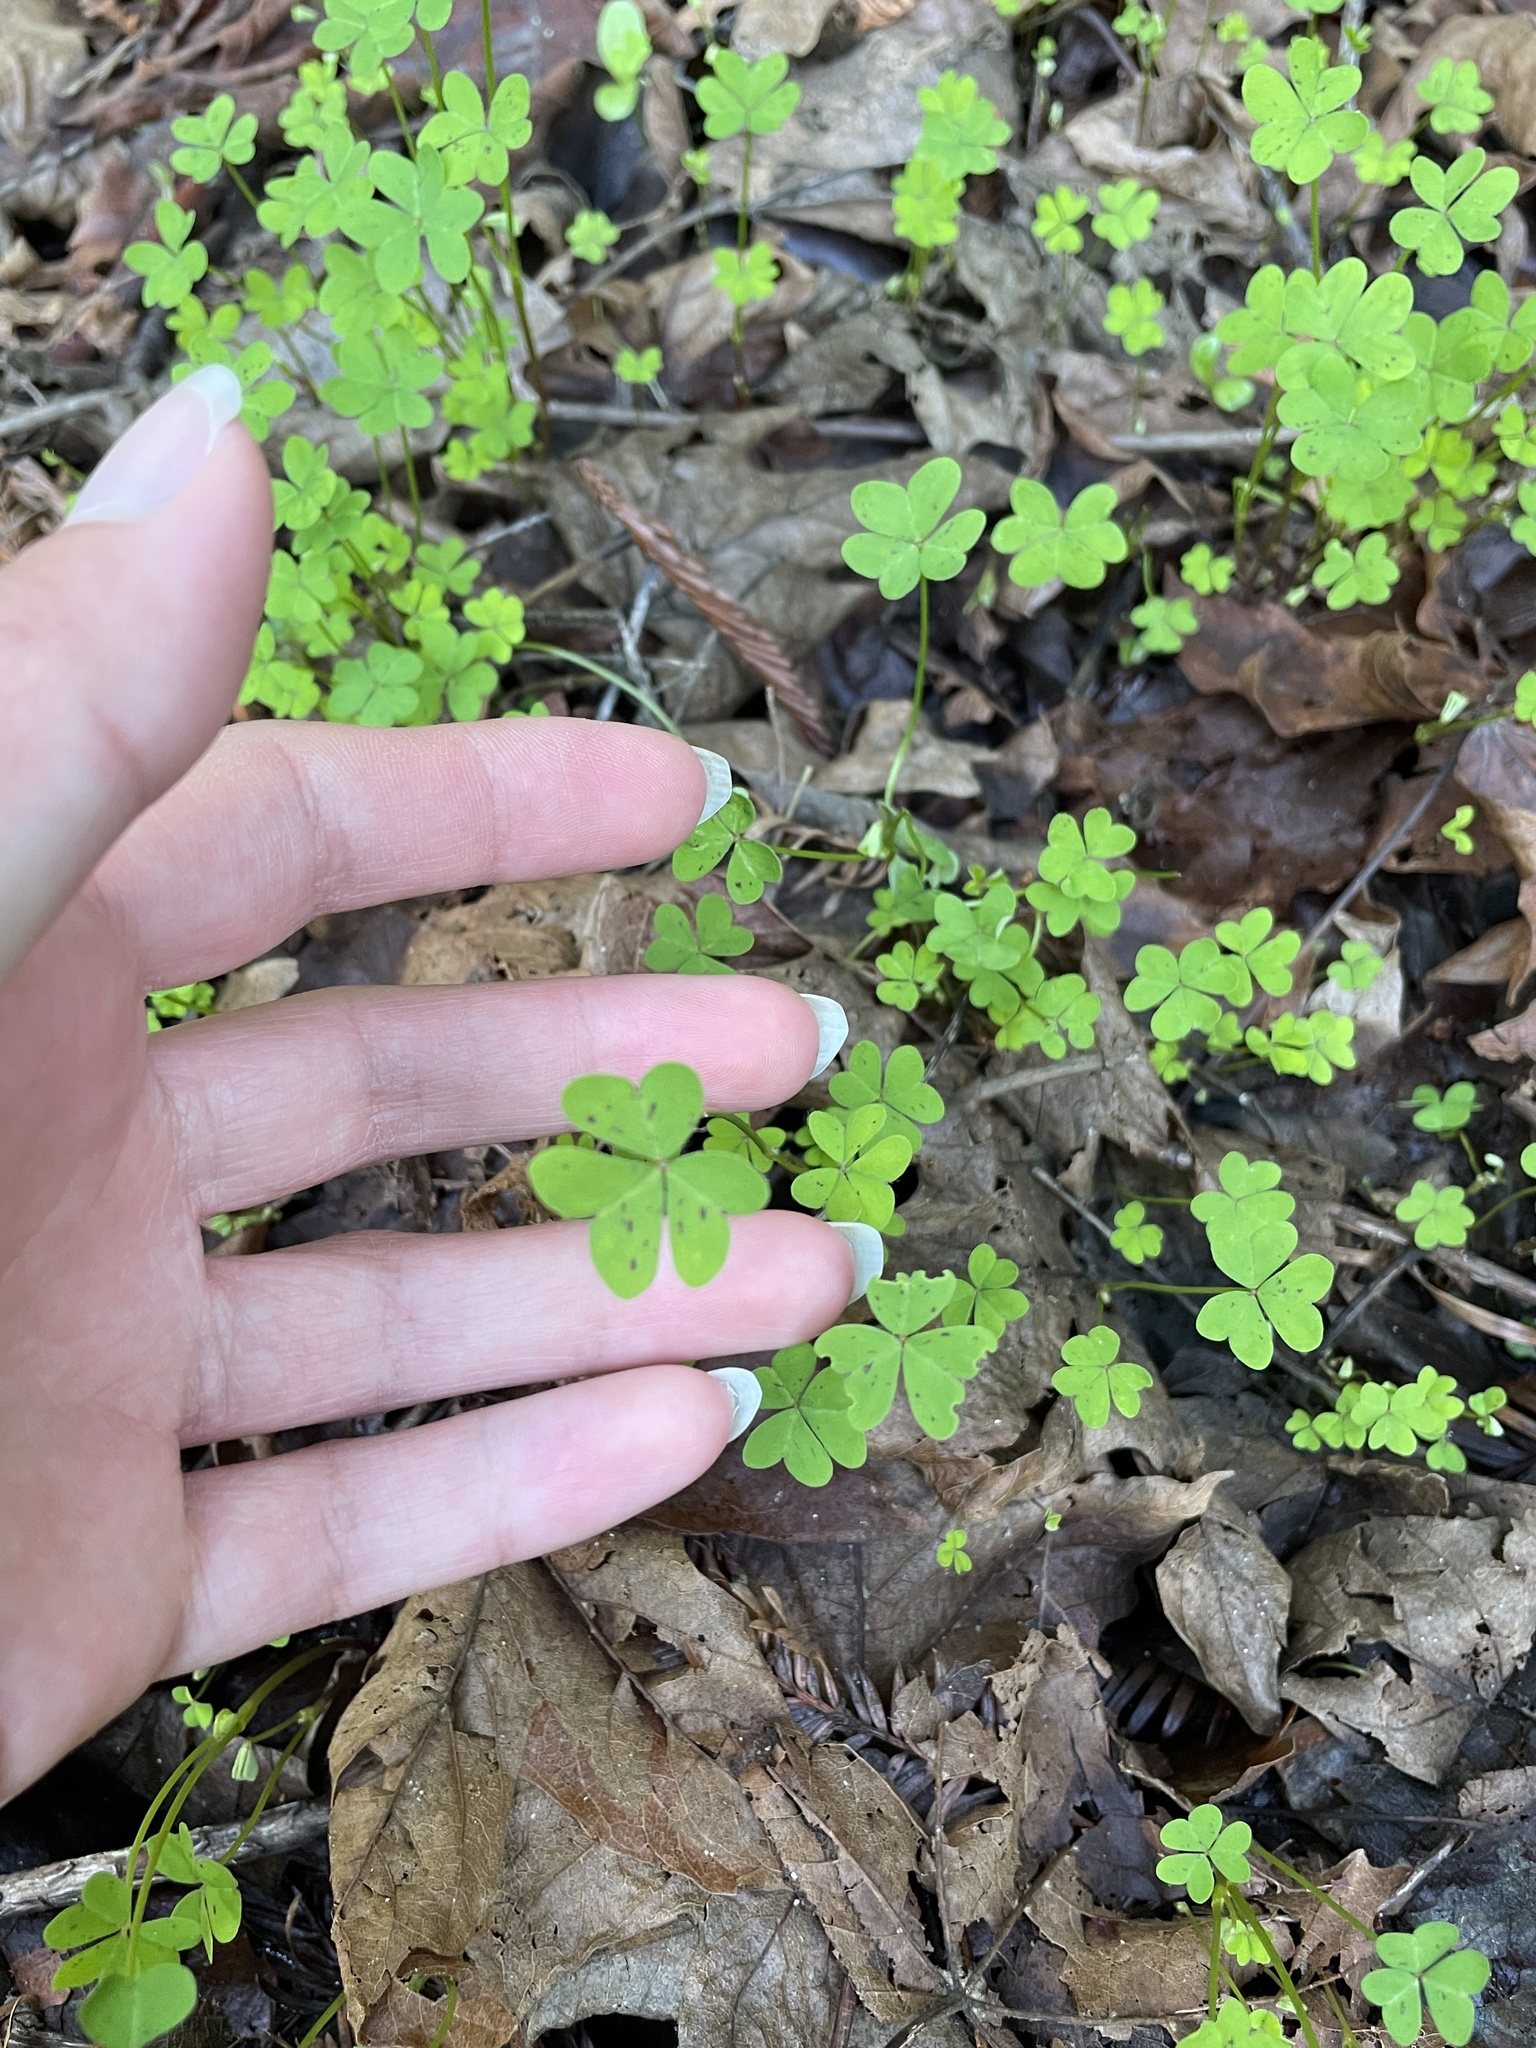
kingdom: Plantae
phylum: Tracheophyta
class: Magnoliopsida
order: Oxalidales
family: Oxalidaceae
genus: Oxalis
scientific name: Oxalis pes-caprae
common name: Bermuda-buttercup
